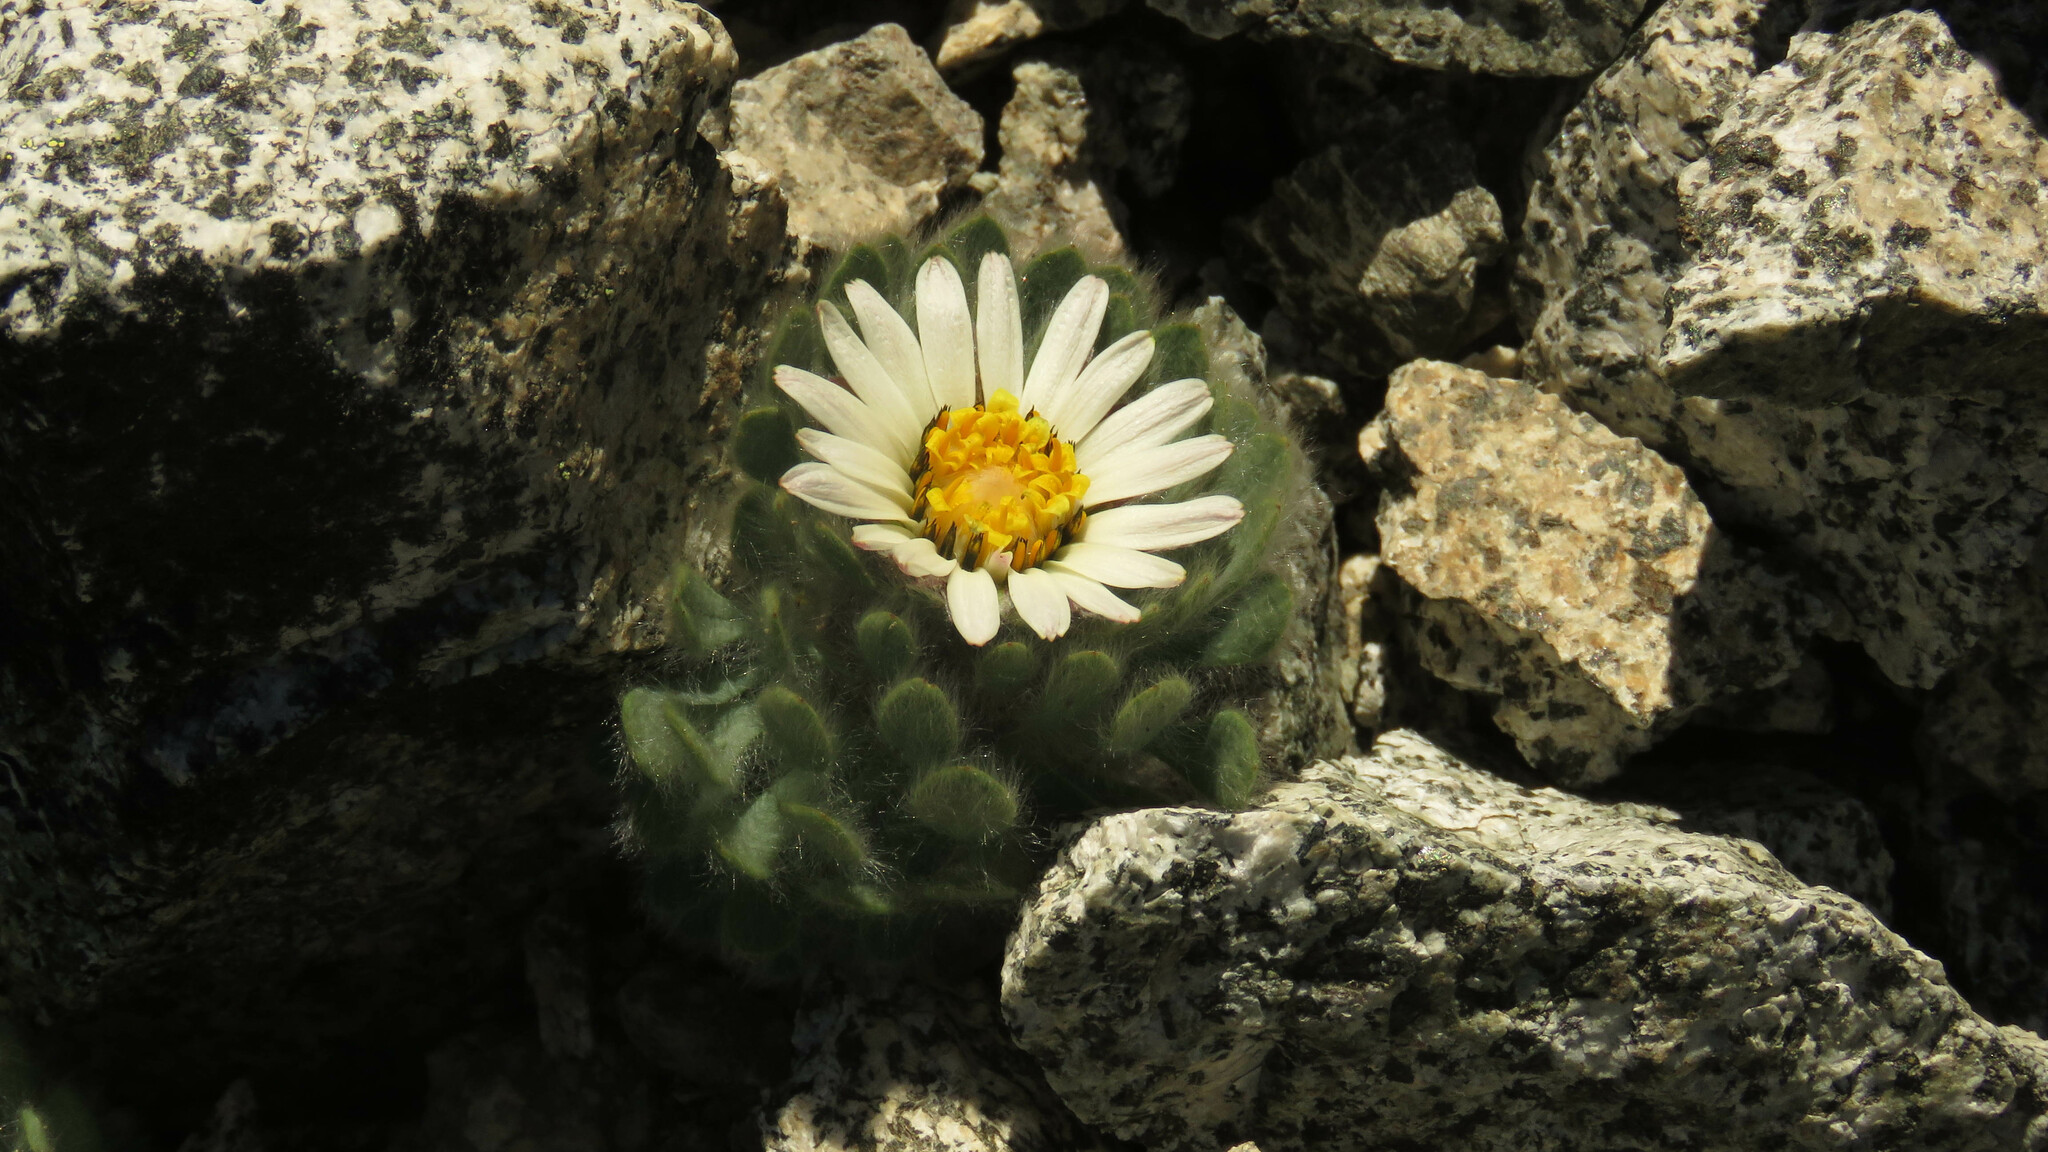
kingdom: Plantae
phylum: Tracheophyta
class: Magnoliopsida
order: Asterales
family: Asteraceae
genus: Chaetanthera
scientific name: Chaetanthera villosa
